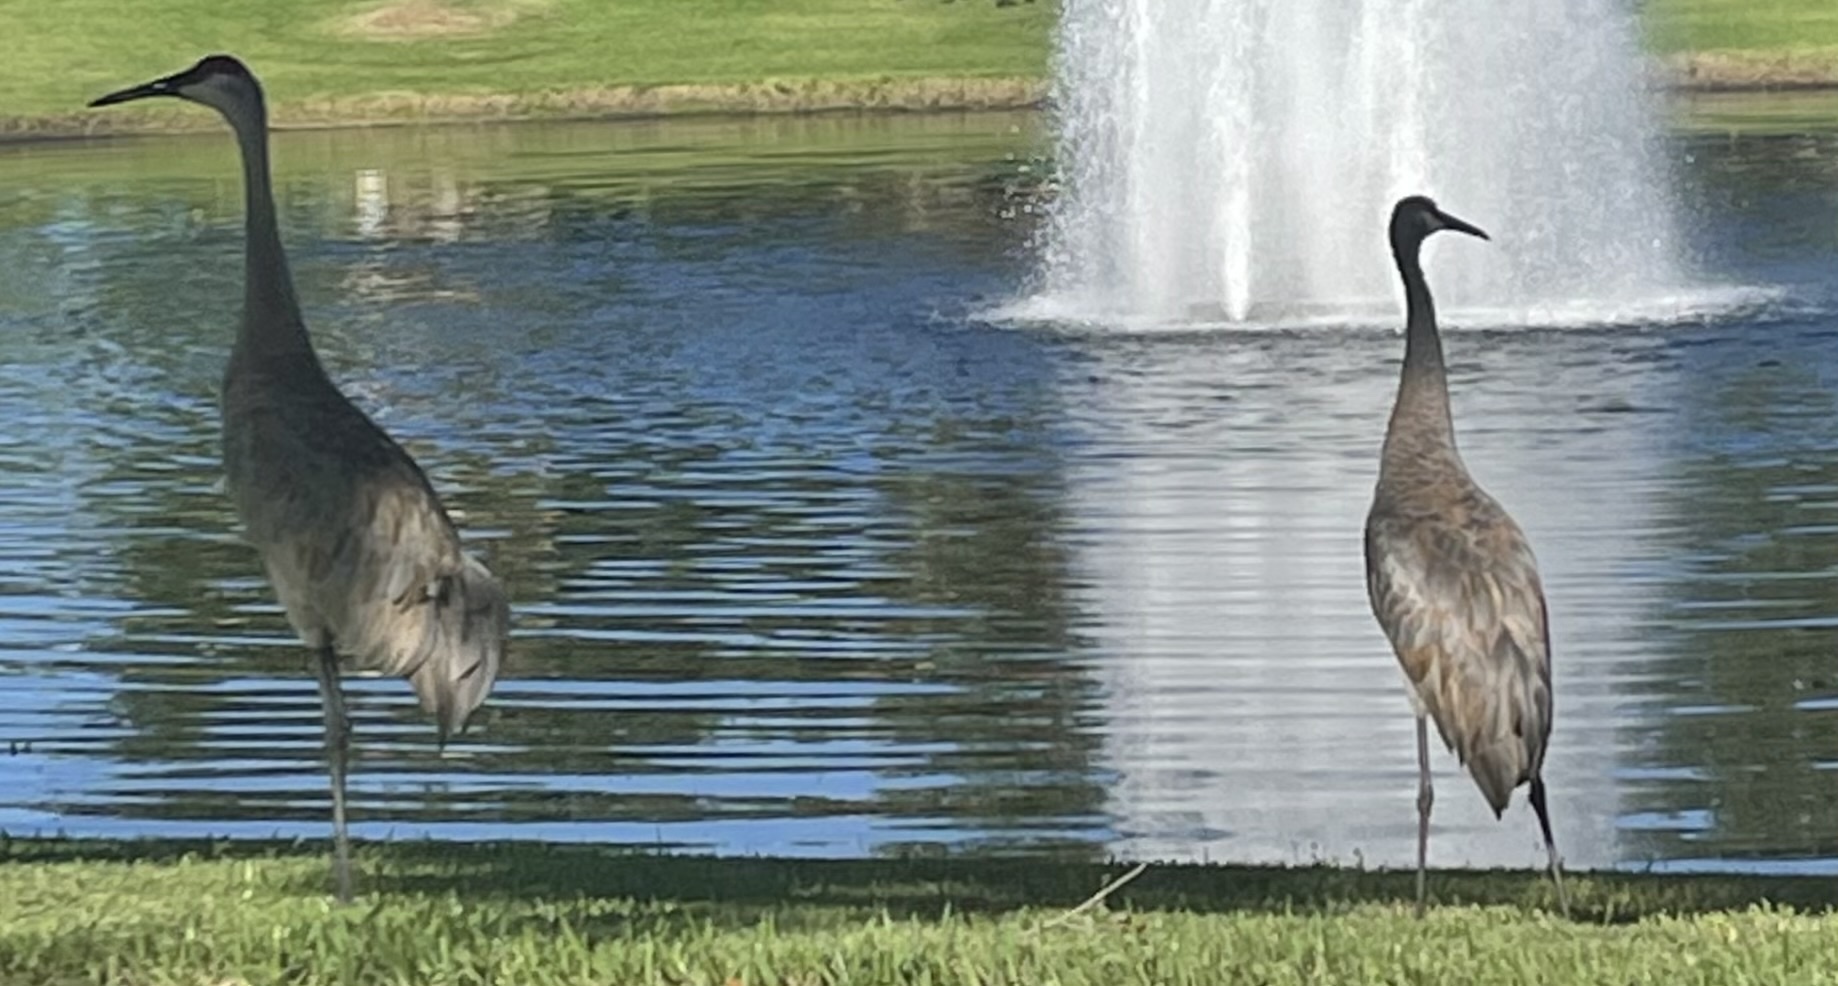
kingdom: Animalia
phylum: Chordata
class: Aves
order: Gruiformes
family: Gruidae
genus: Grus
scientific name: Grus canadensis
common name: Sandhill crane
